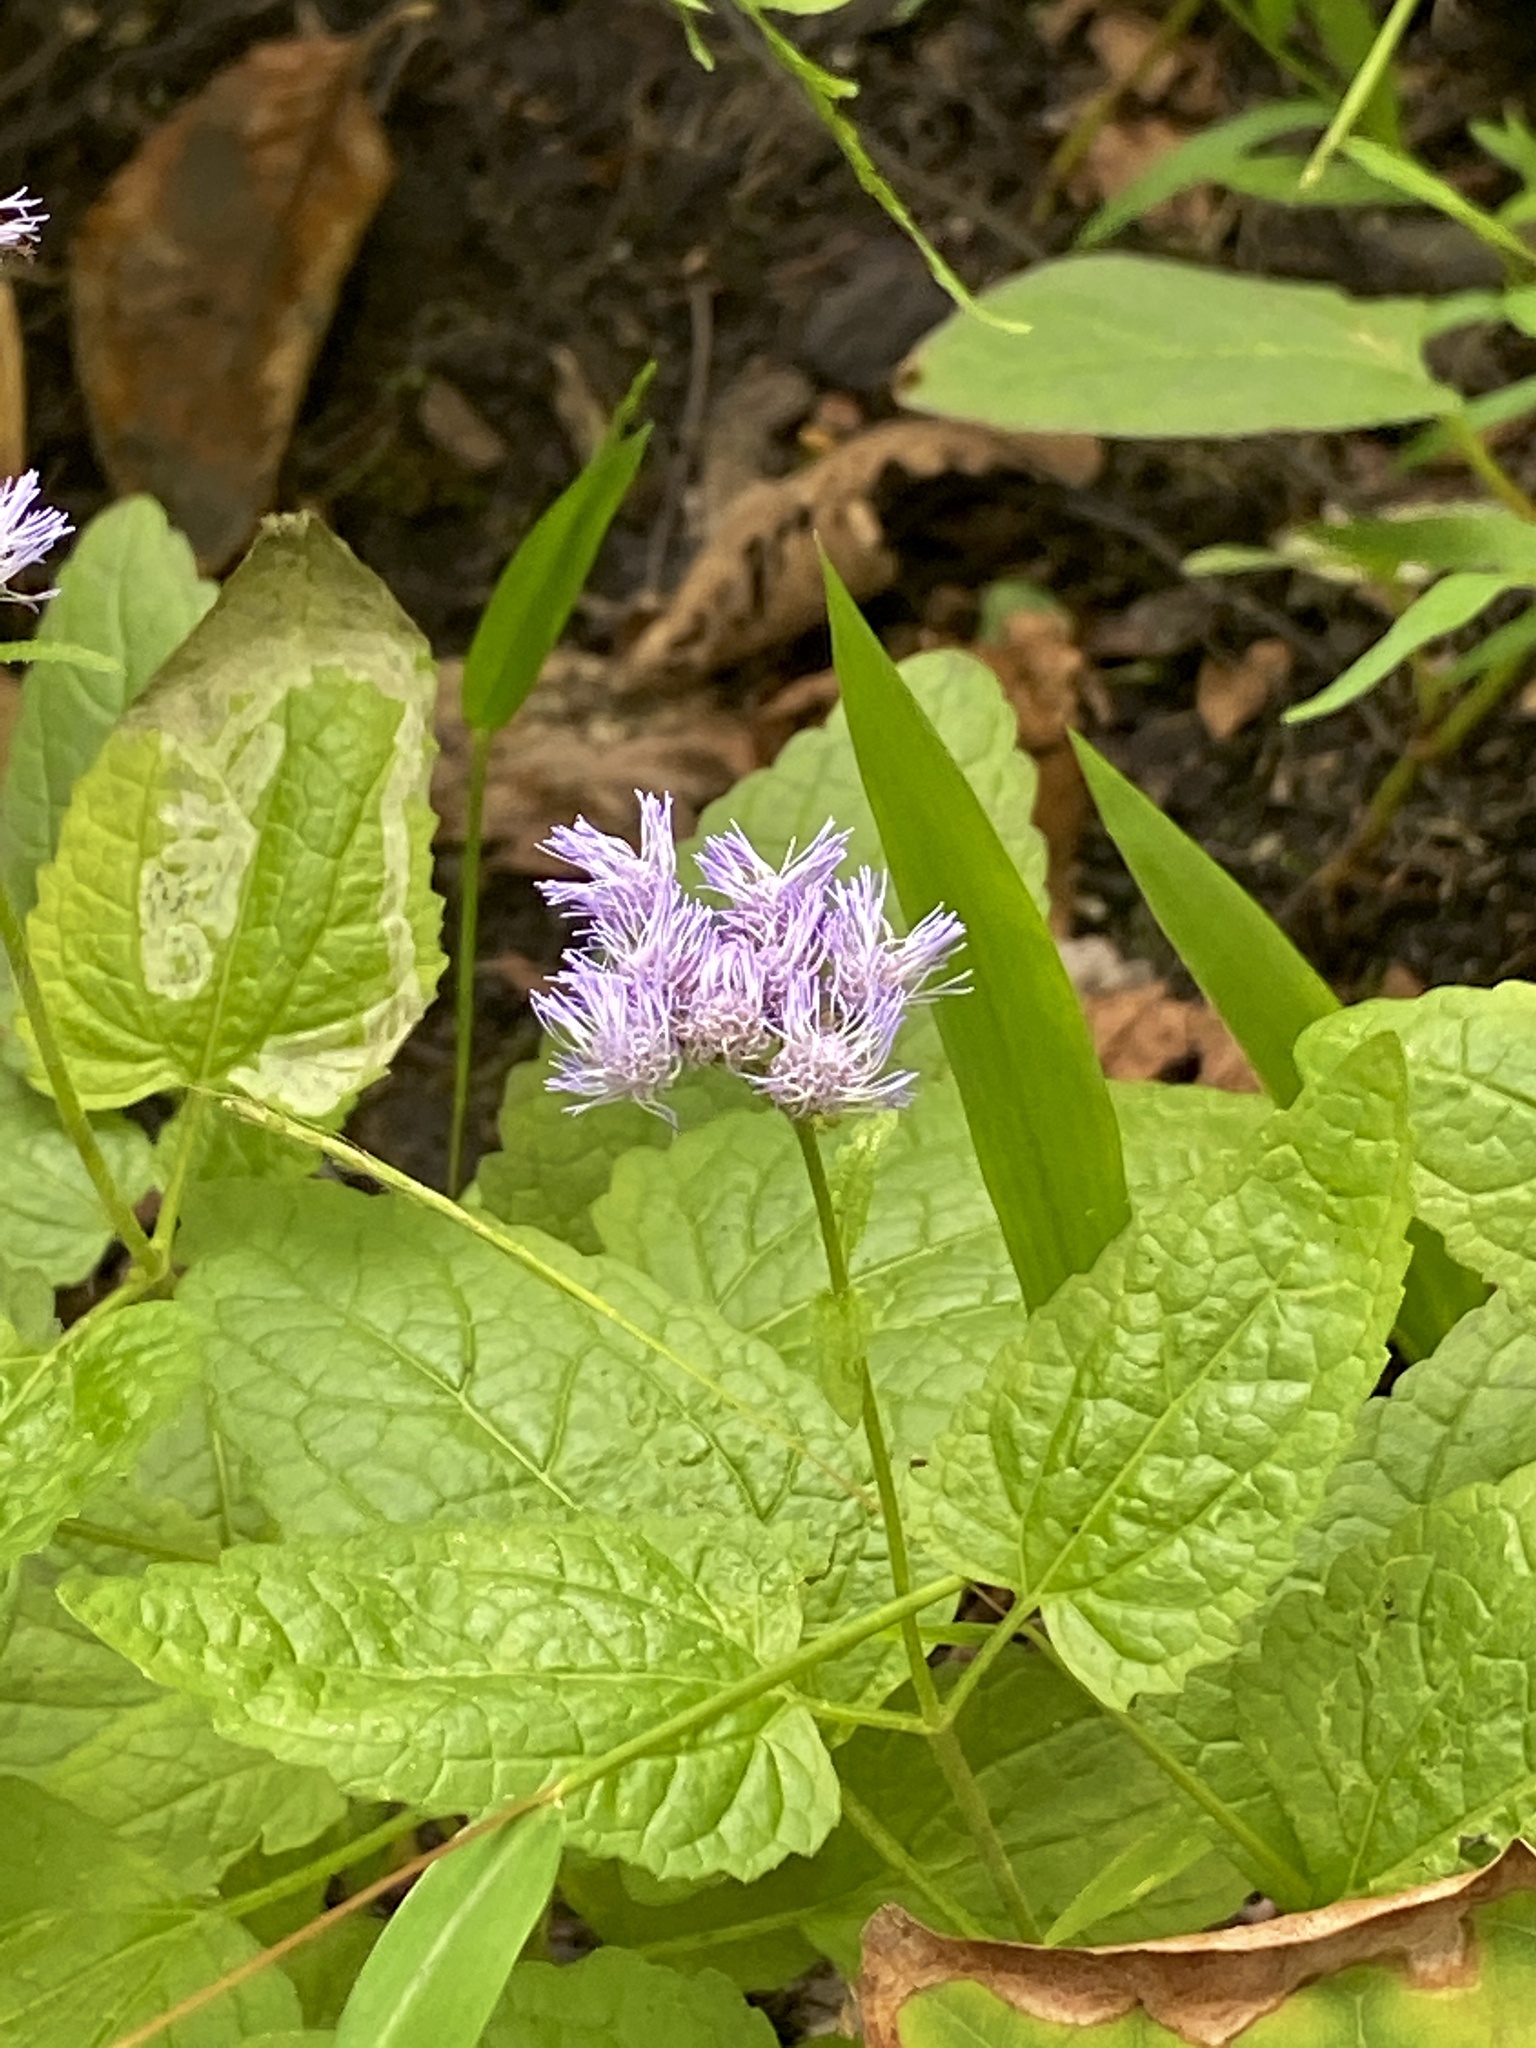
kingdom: Plantae
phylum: Tracheophyta
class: Magnoliopsida
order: Asterales
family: Asteraceae
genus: Conoclinium
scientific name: Conoclinium coelestinum
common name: Blue mistflower
